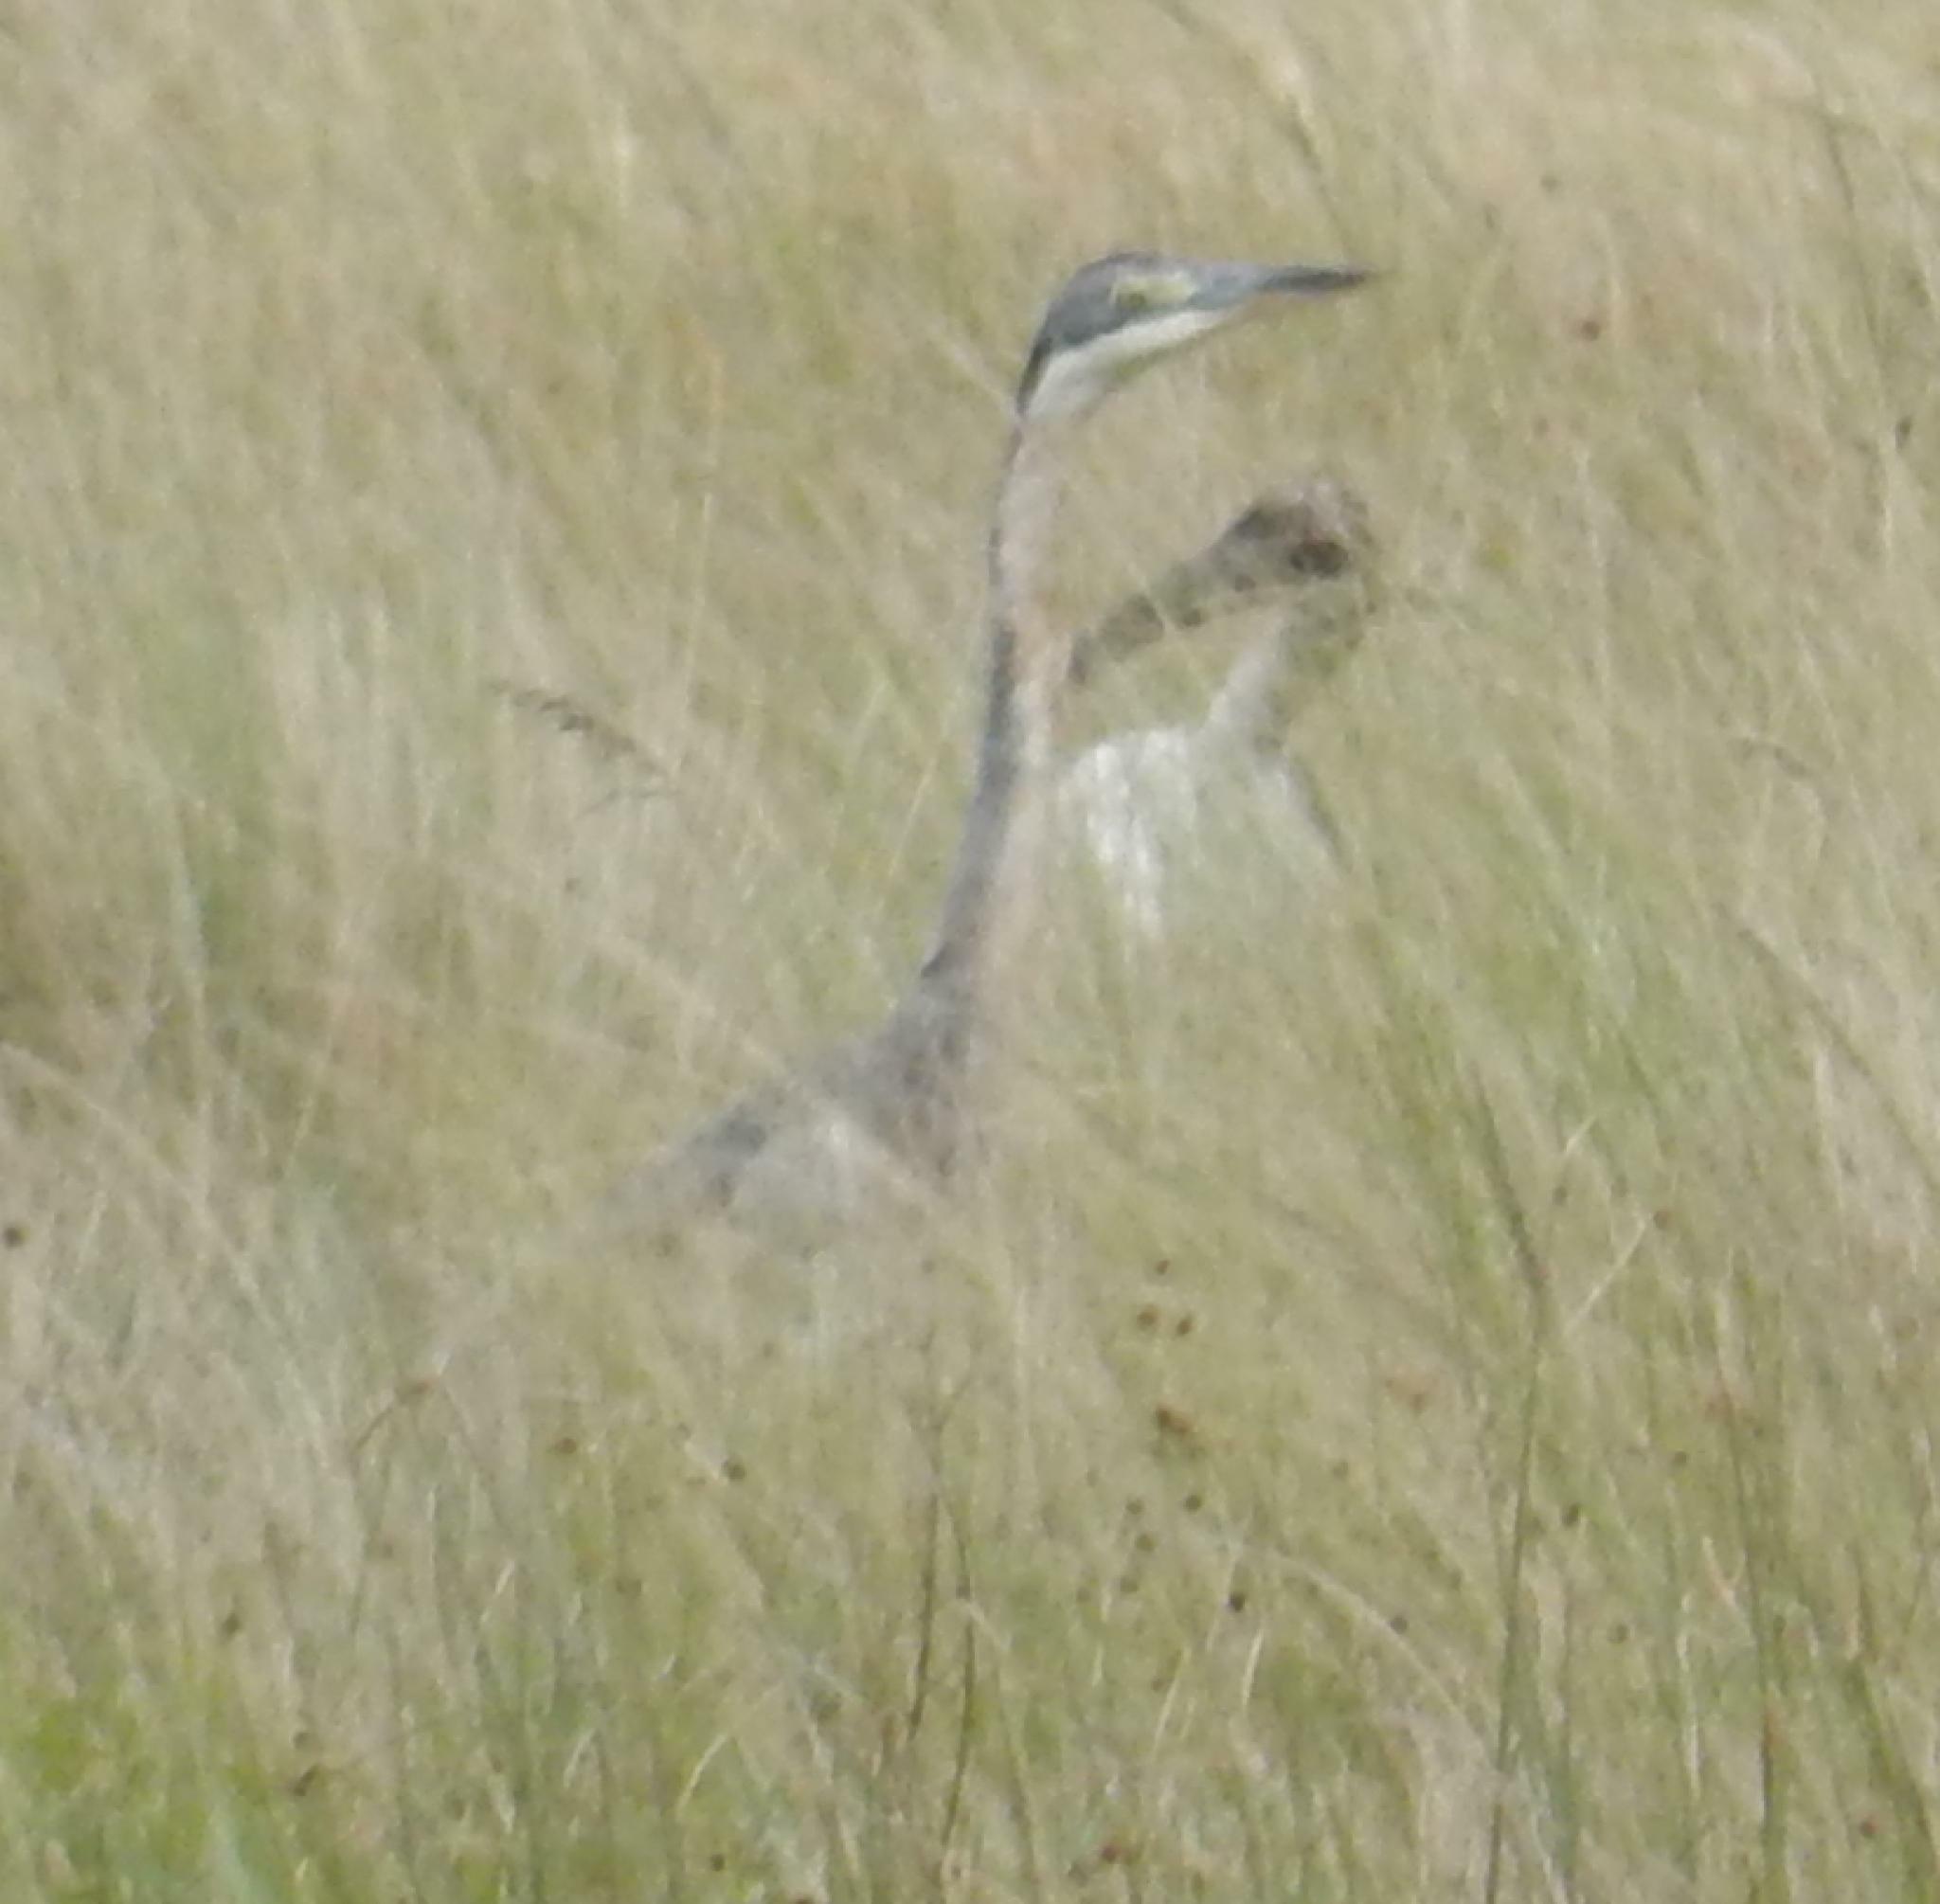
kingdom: Animalia
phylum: Chordata
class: Aves
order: Pelecaniformes
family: Ardeidae
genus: Ardea
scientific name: Ardea melanocephala
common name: Black-headed heron
